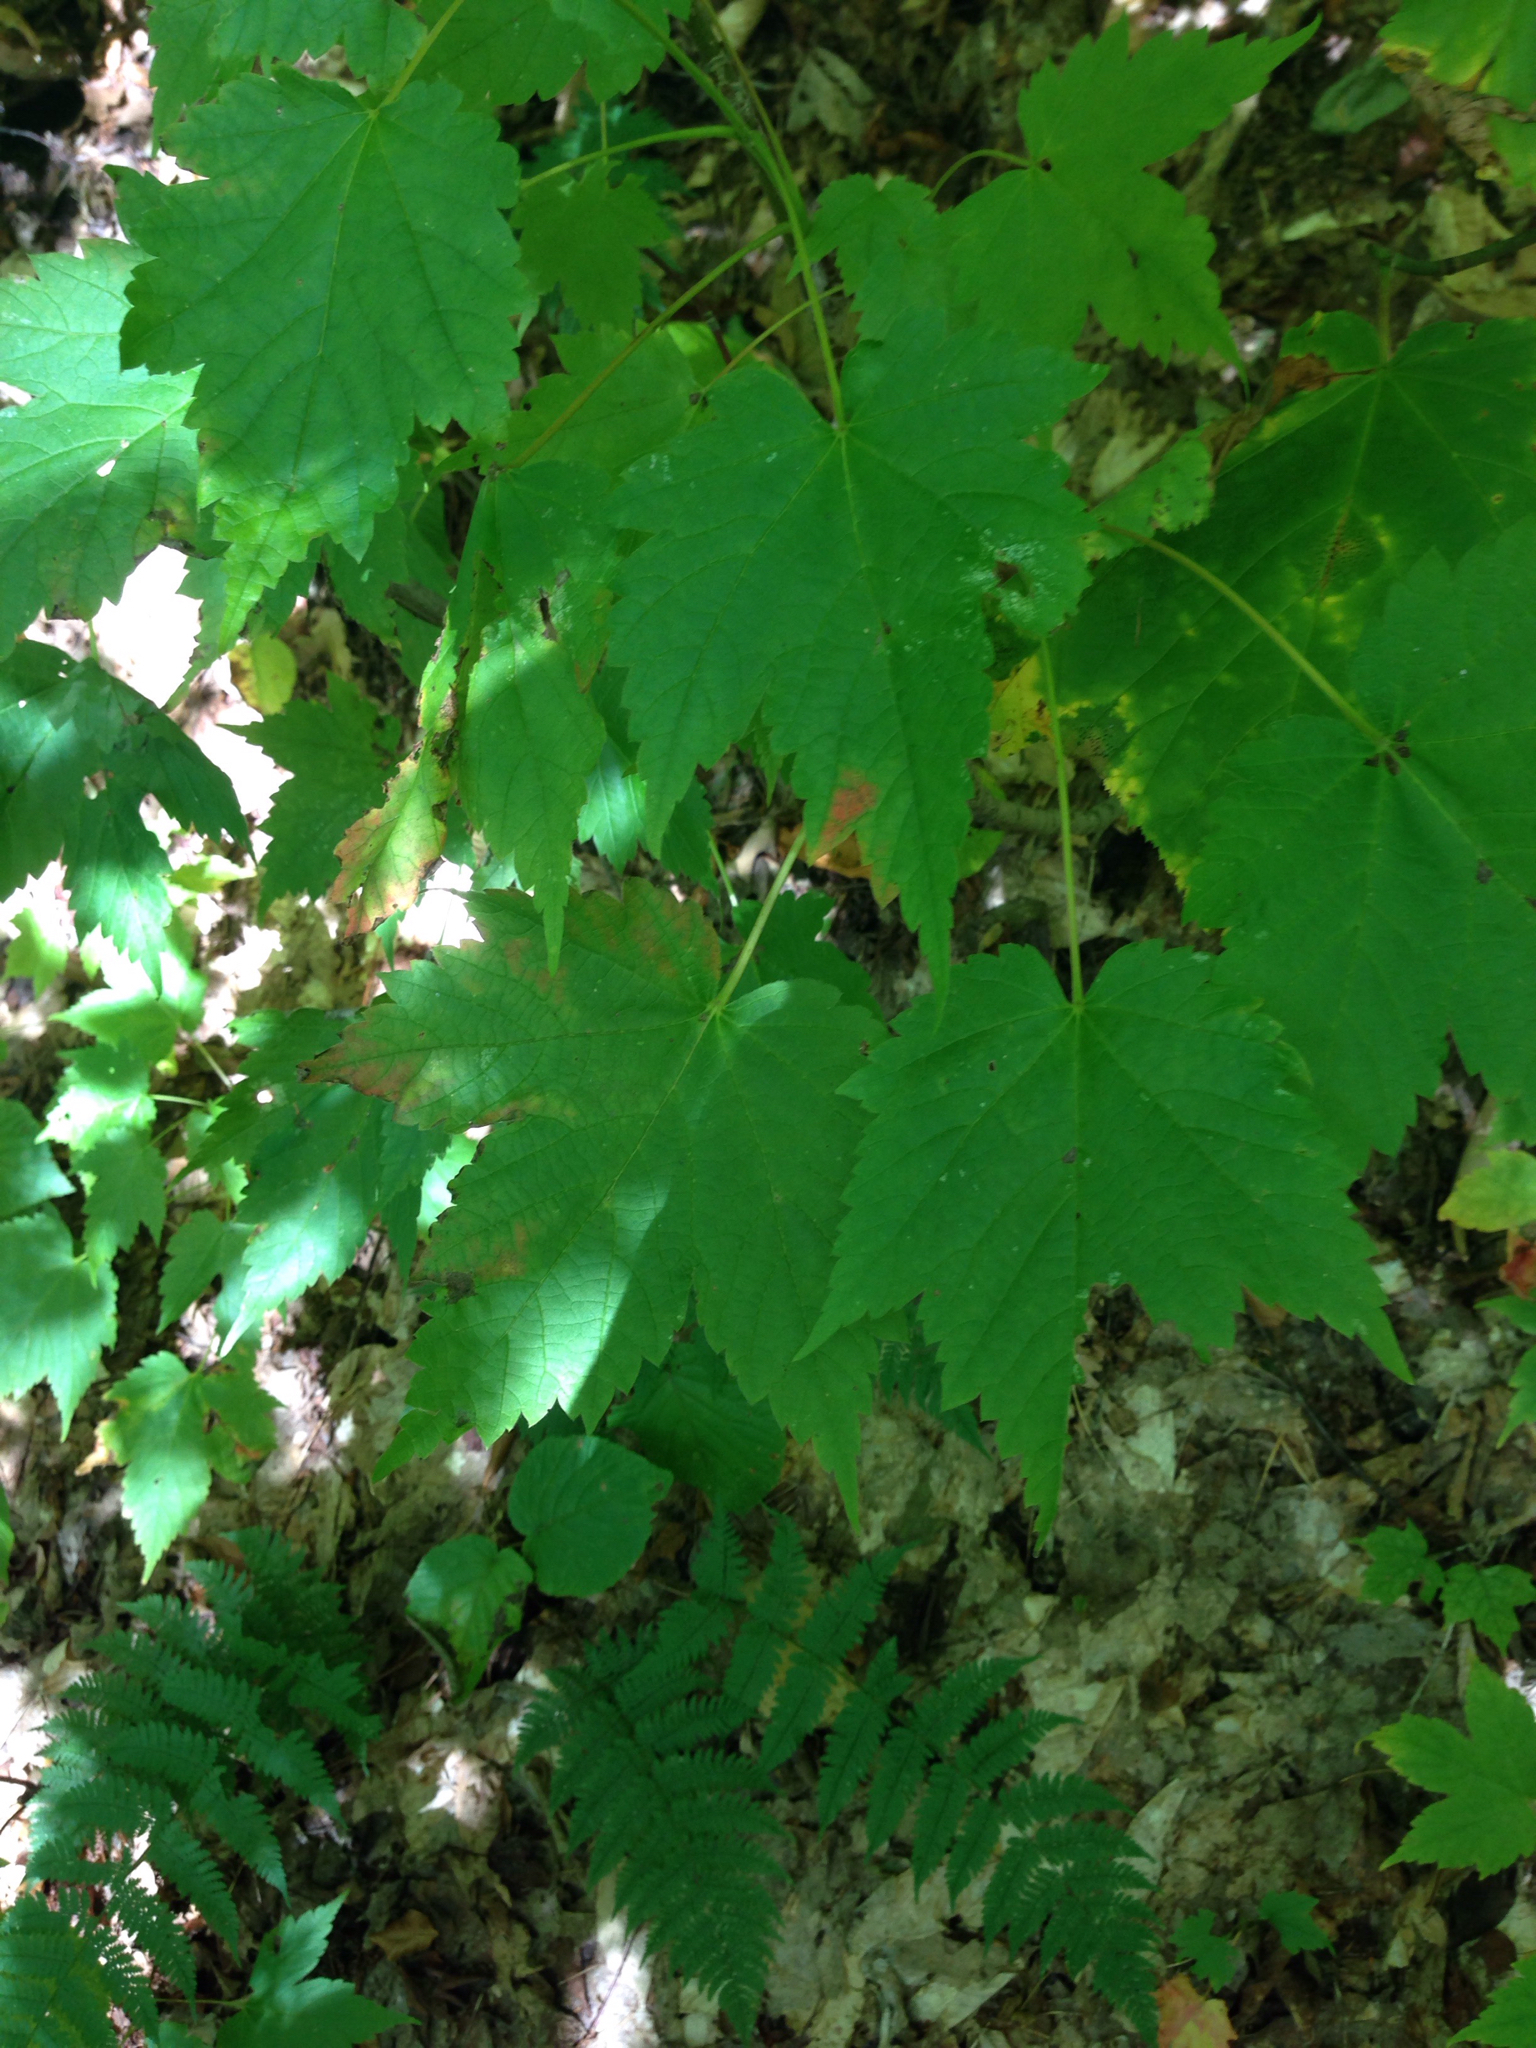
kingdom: Plantae
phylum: Tracheophyta
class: Magnoliopsida
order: Sapindales
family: Sapindaceae
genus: Acer
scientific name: Acer spicatum
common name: Mountain maple
